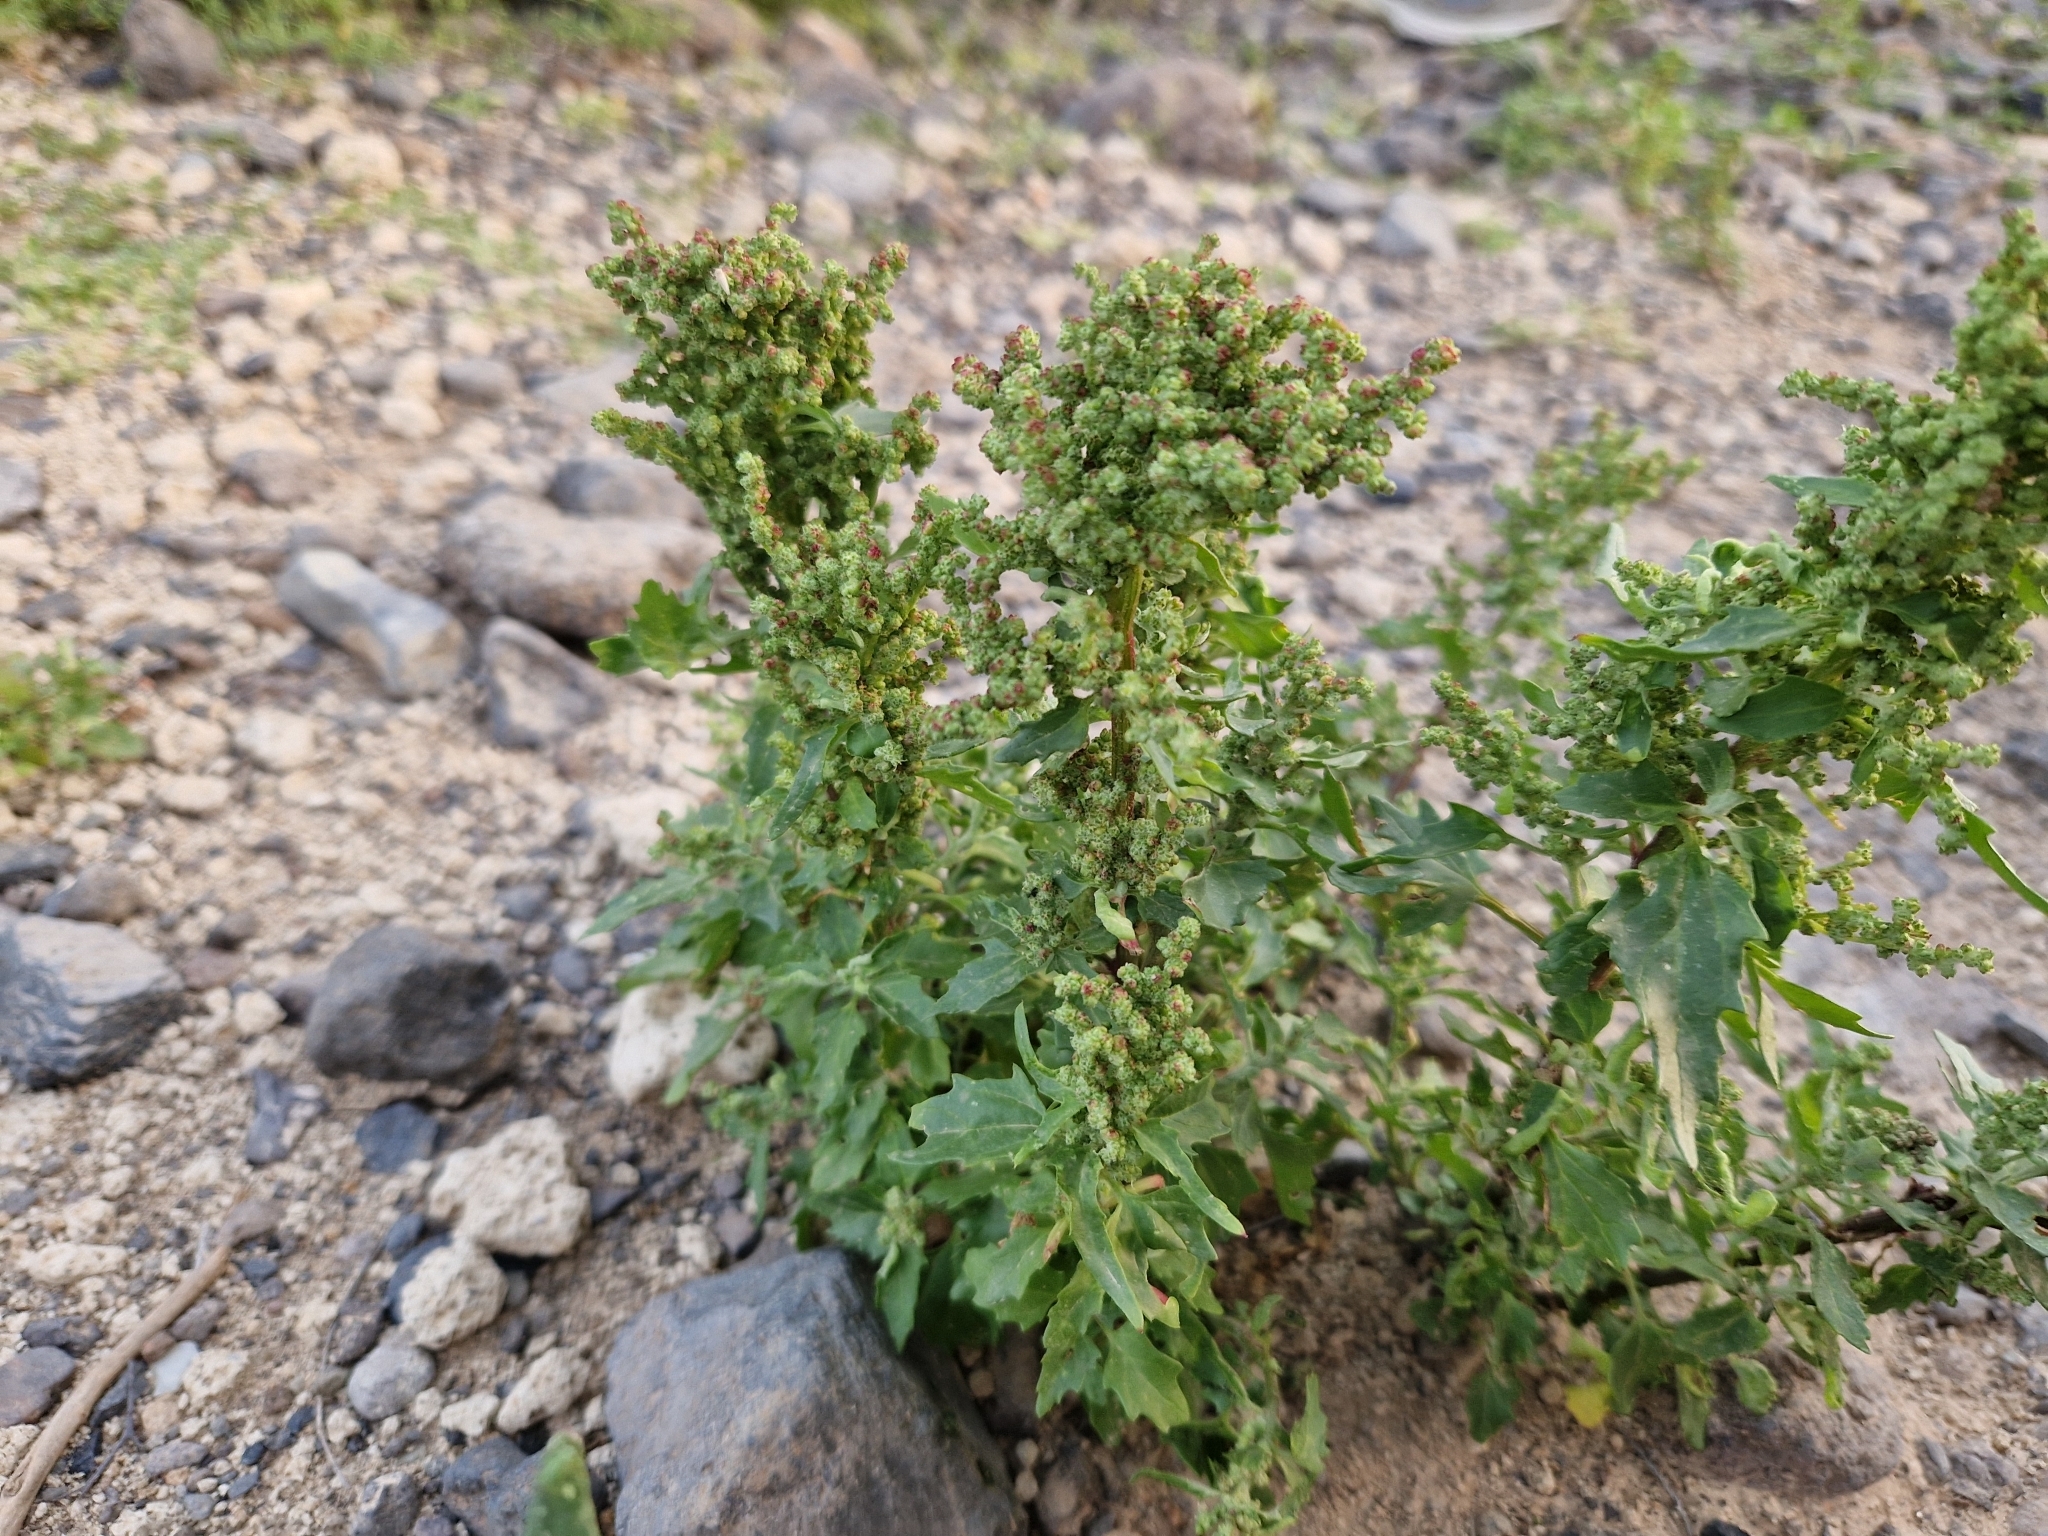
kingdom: Plantae
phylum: Tracheophyta
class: Magnoliopsida
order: Caryophyllales
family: Amaranthaceae
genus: Chenopodiastrum
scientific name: Chenopodiastrum murale
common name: Sowbane
